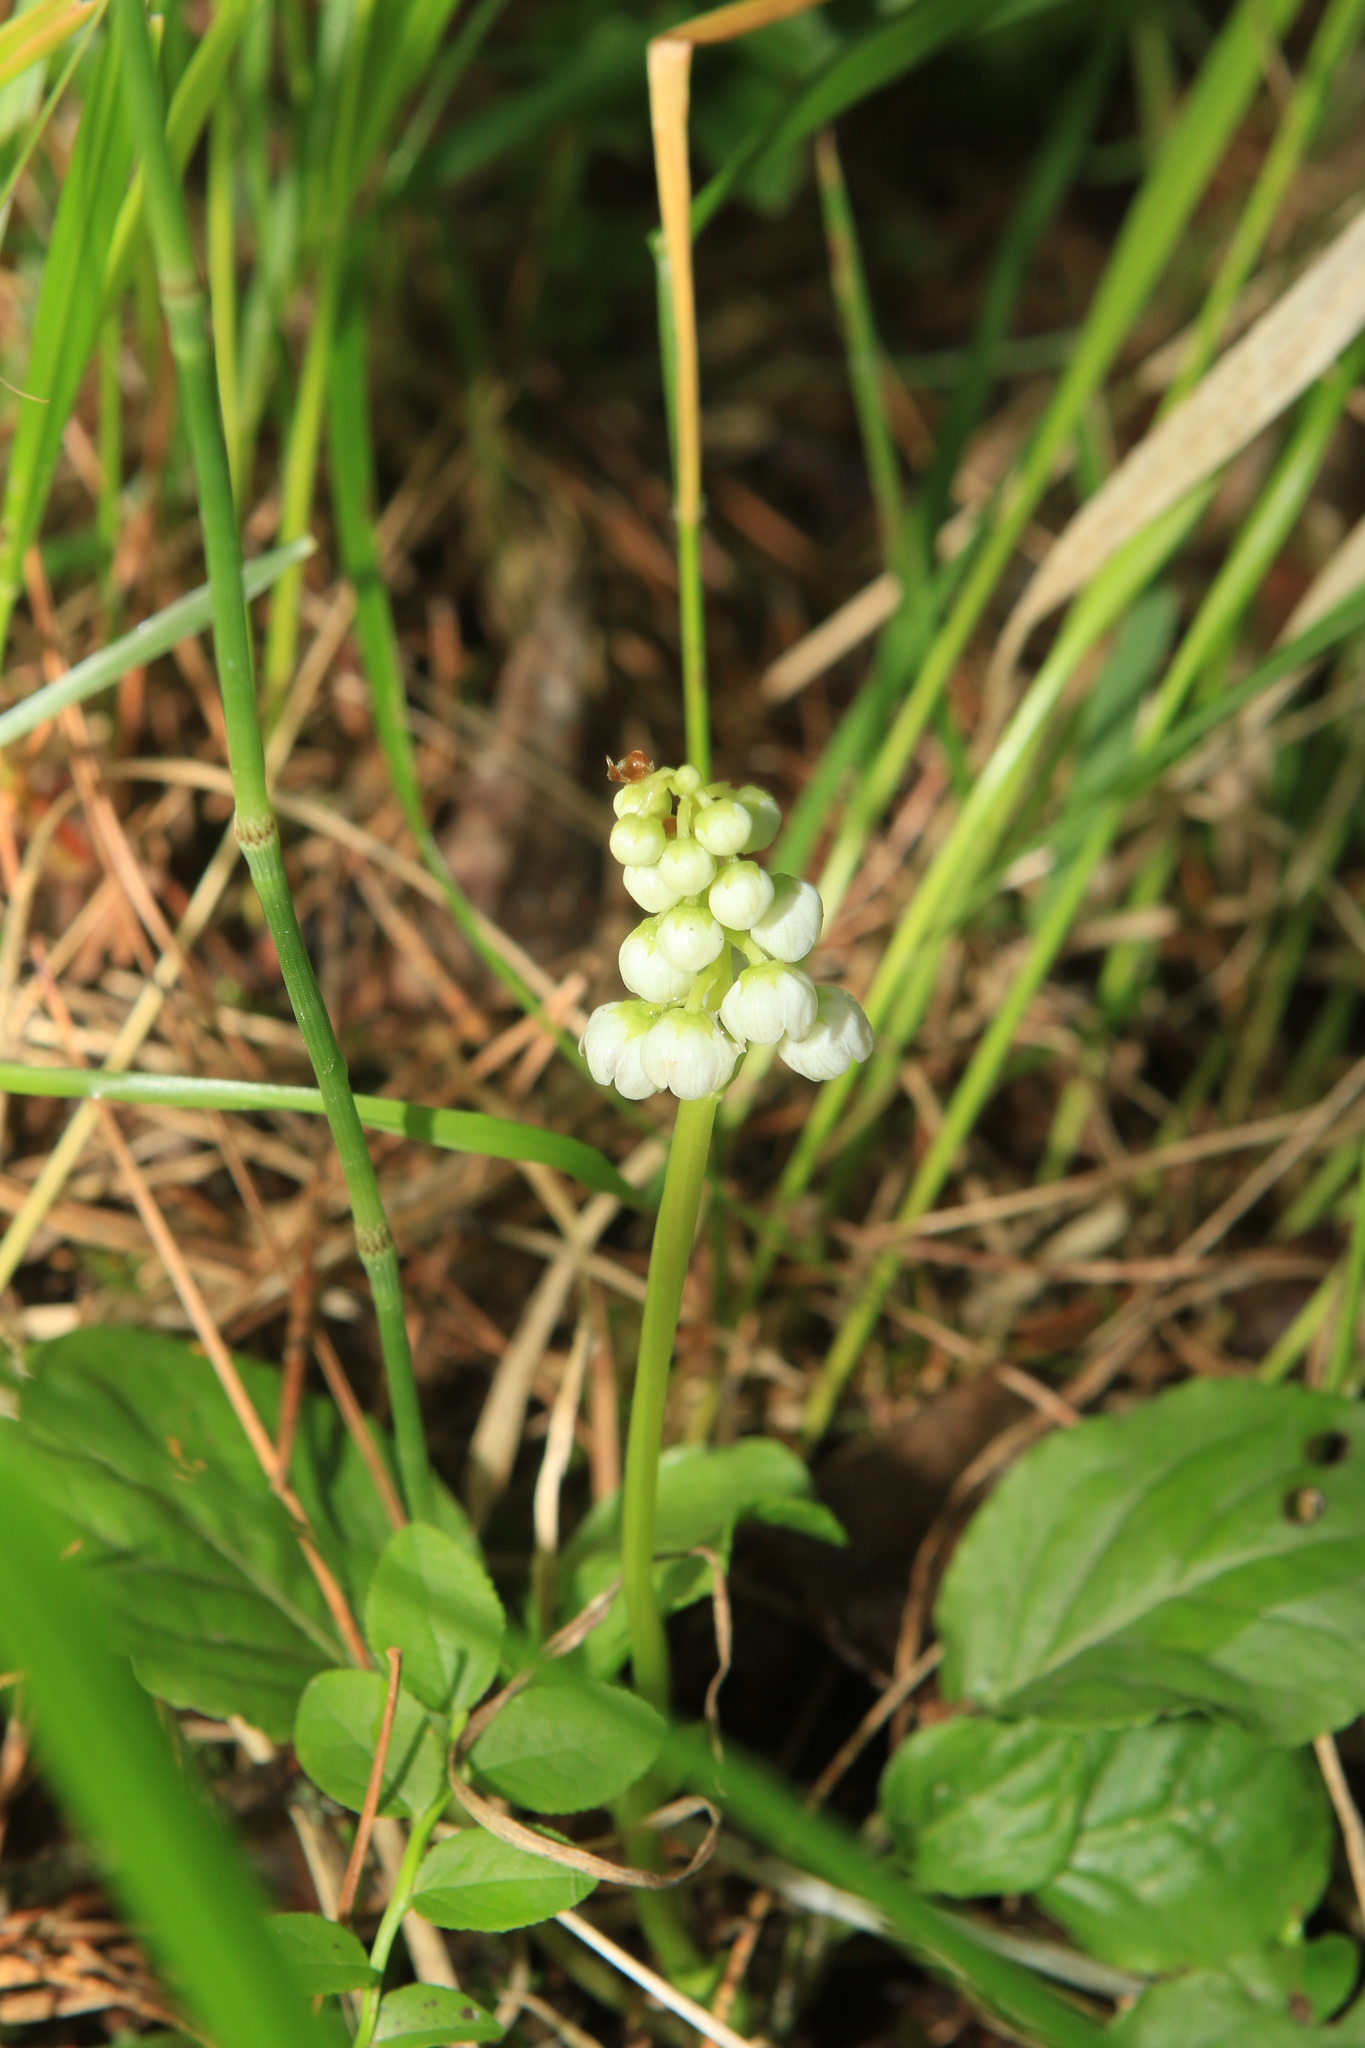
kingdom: Plantae
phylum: Tracheophyta
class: Magnoliopsida
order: Ericales
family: Ericaceae
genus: Pyrola
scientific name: Pyrola minor
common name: Common wintergreen
